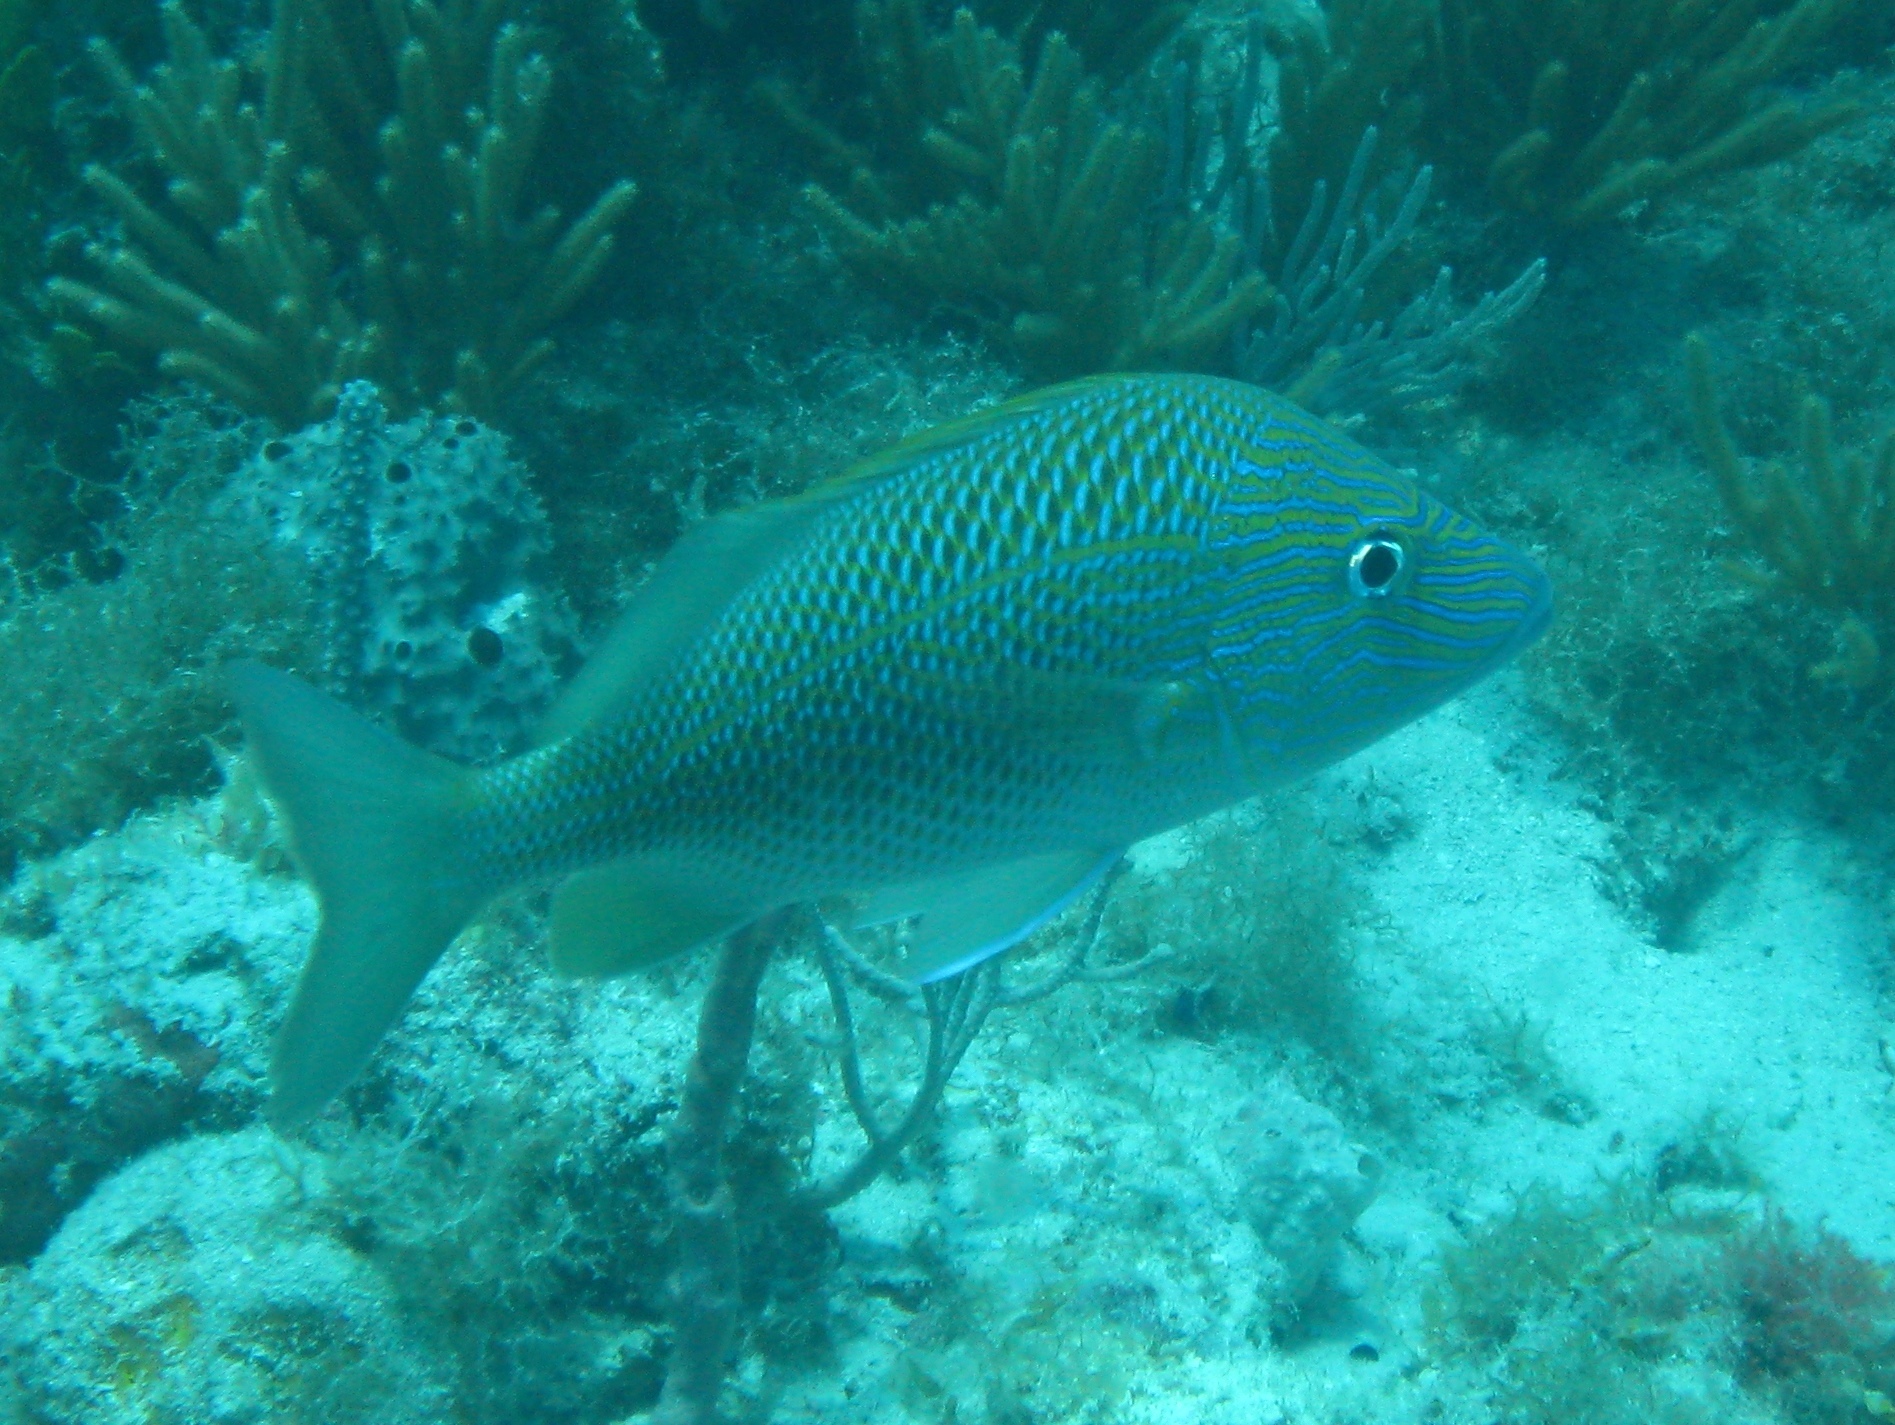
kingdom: Animalia
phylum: Chordata
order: Perciformes
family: Haemulidae
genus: Haemulon
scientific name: Haemulon plumierii
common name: White grunt
